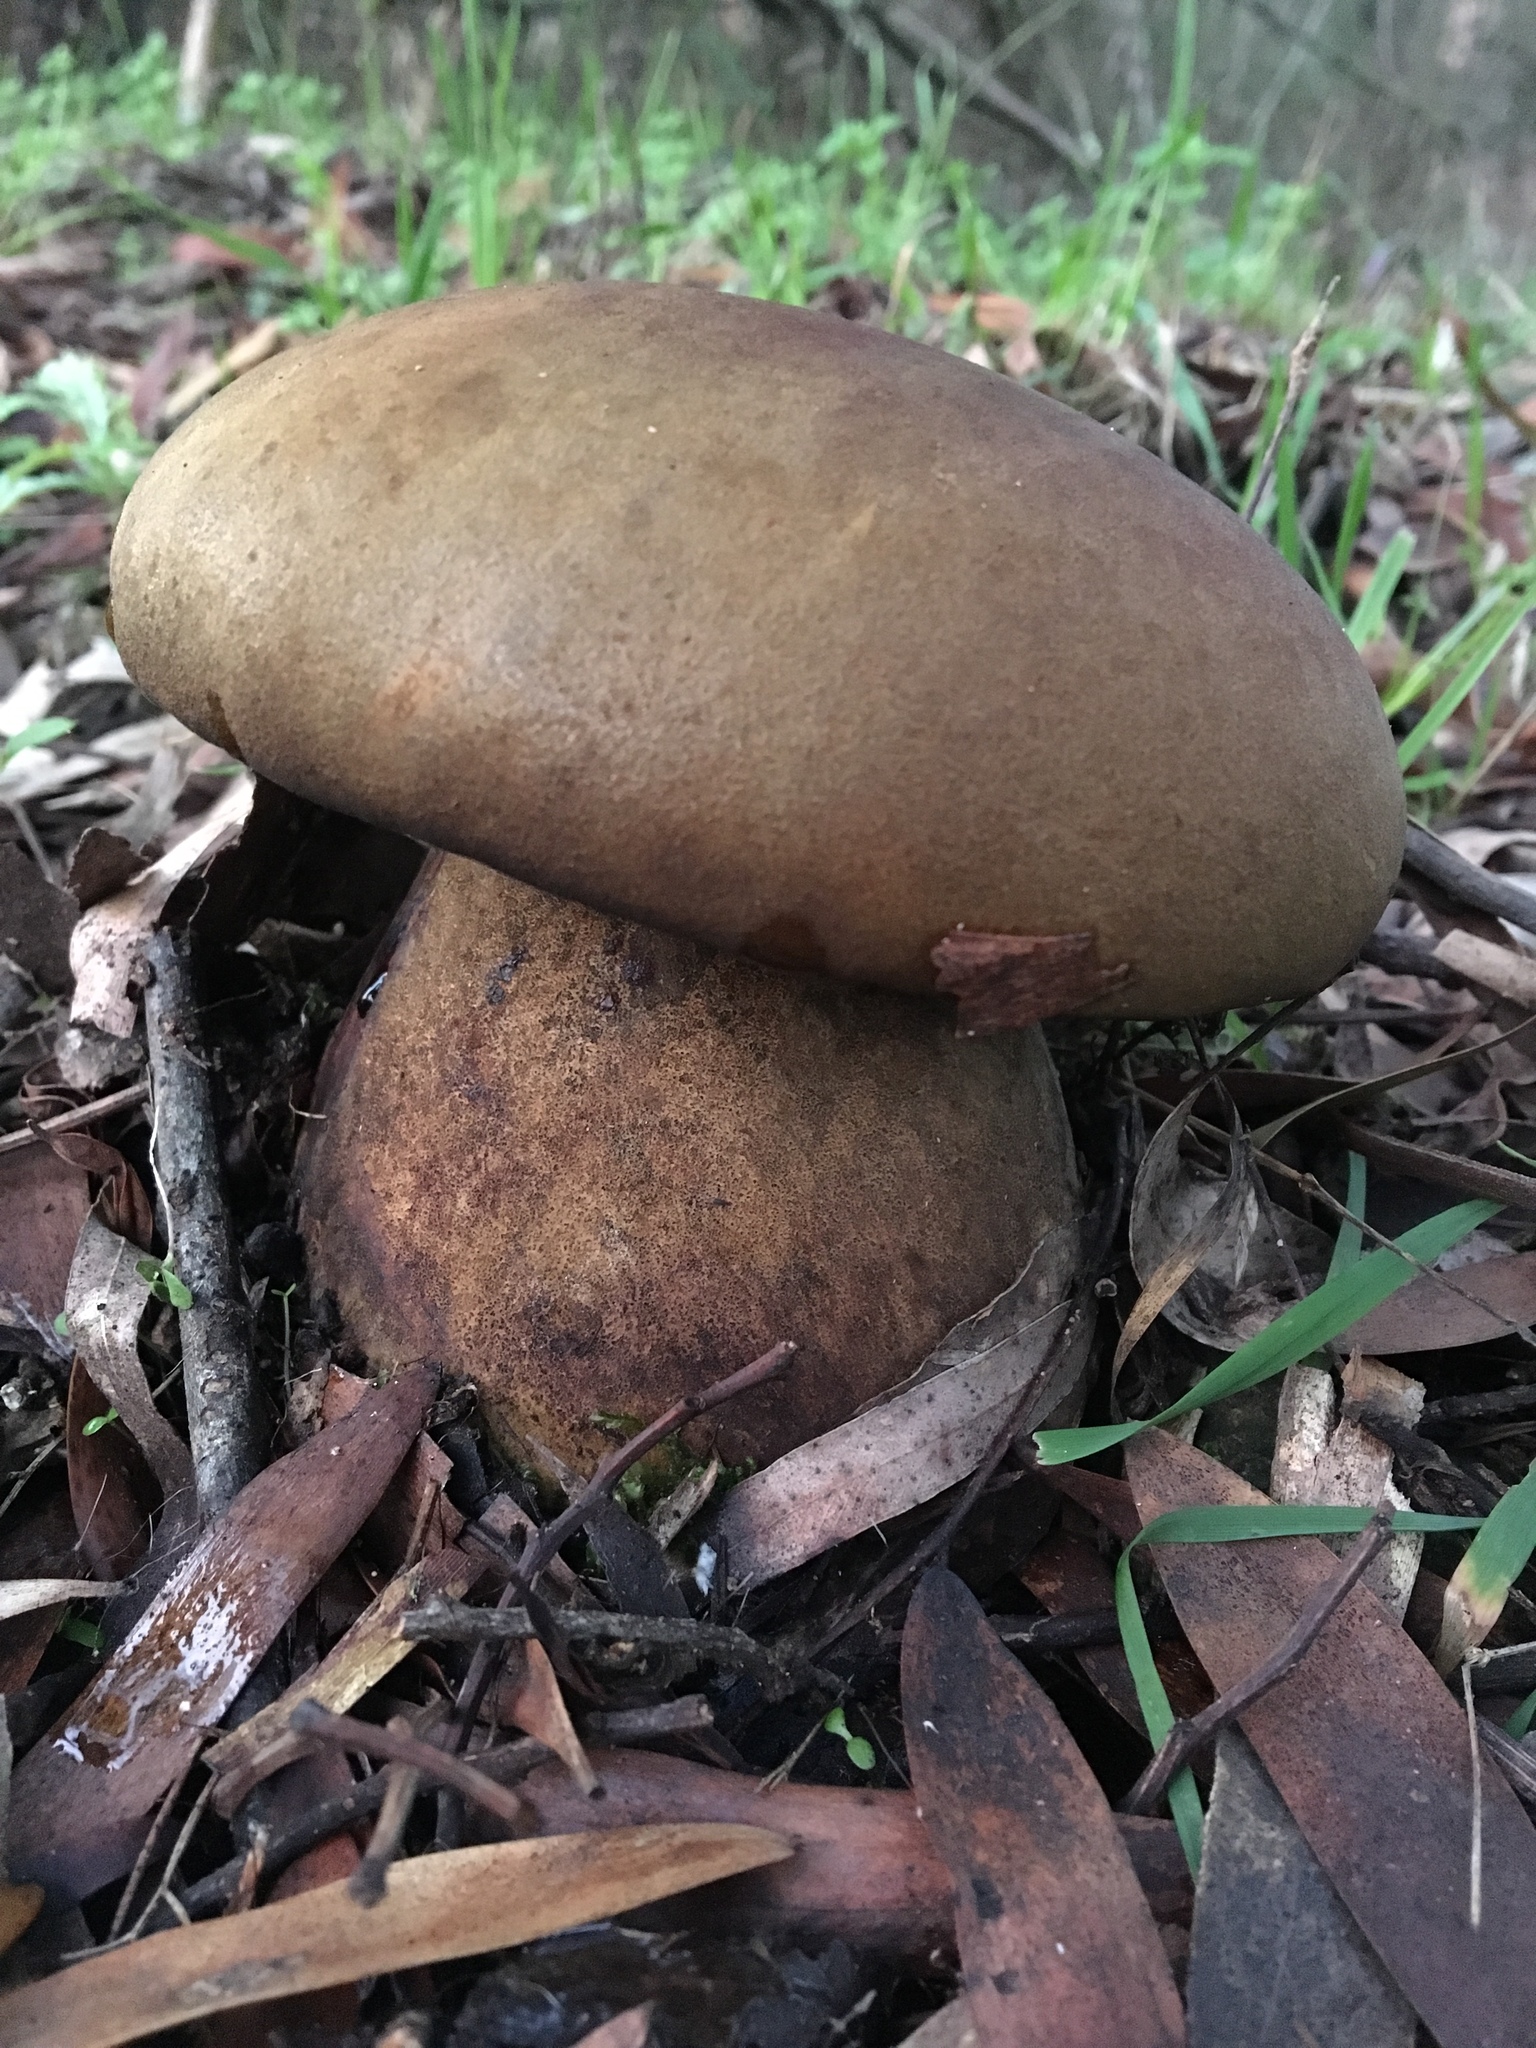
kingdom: Fungi
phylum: Basidiomycota
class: Agaricomycetes
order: Boletales
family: Boletinellaceae
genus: Phlebopus
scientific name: Phlebopus marginatus
